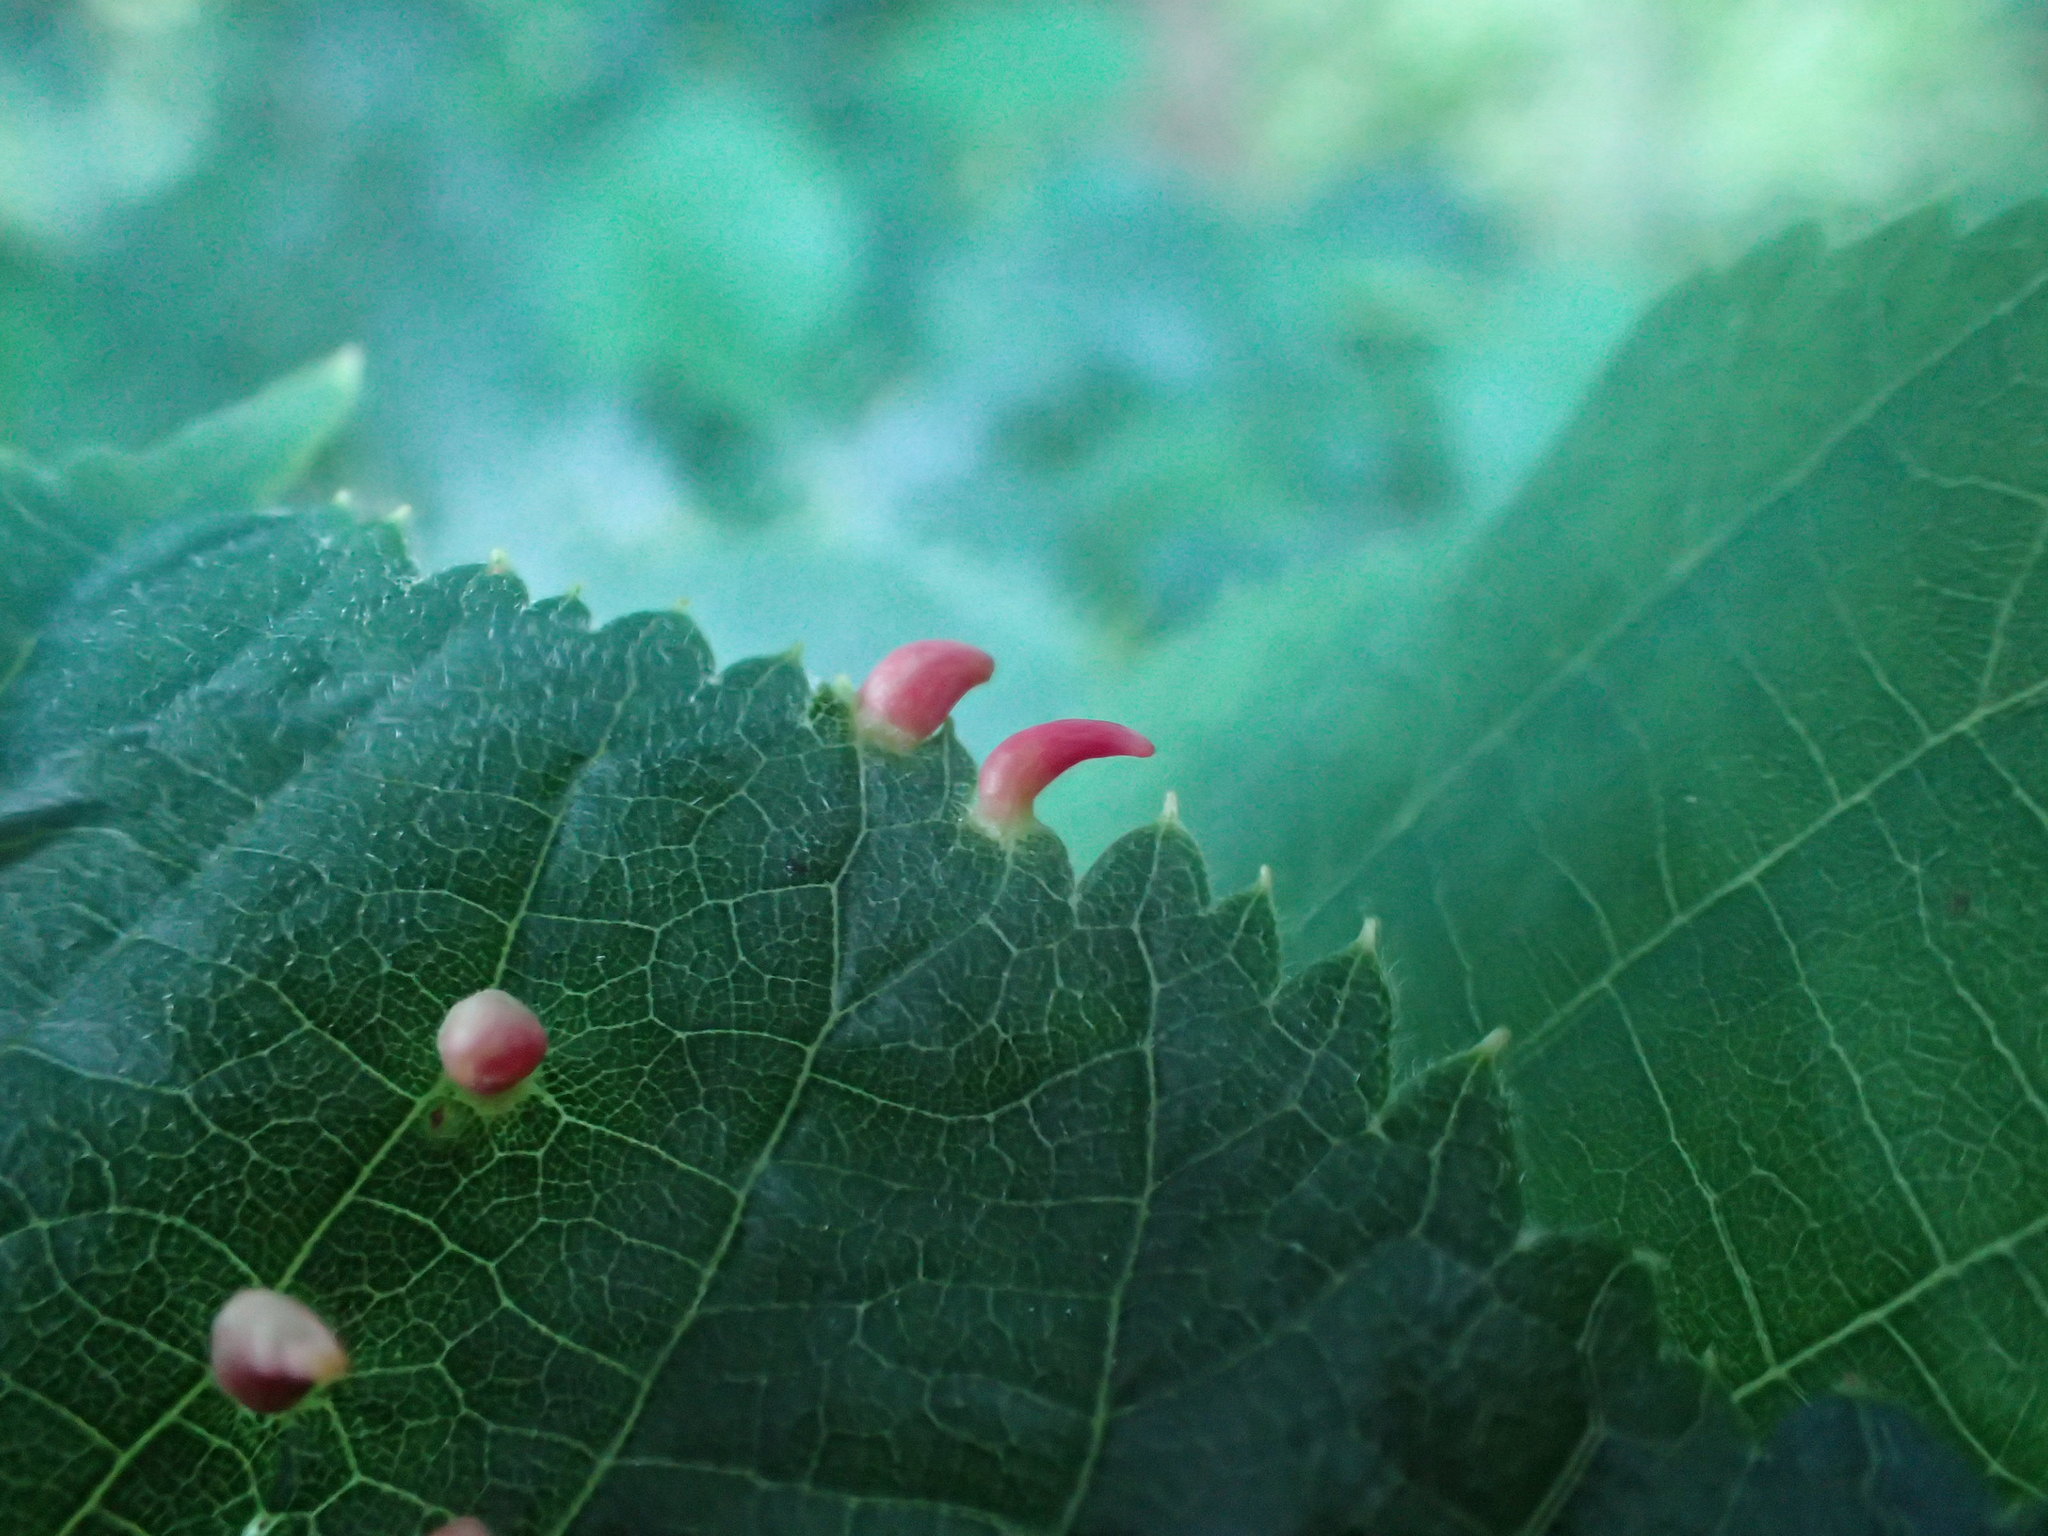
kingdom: Animalia
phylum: Arthropoda
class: Arachnida
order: Trombidiformes
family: Eriophyidae
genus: Eriophyes
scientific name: Eriophyes tiliae
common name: Red nail gall mite
